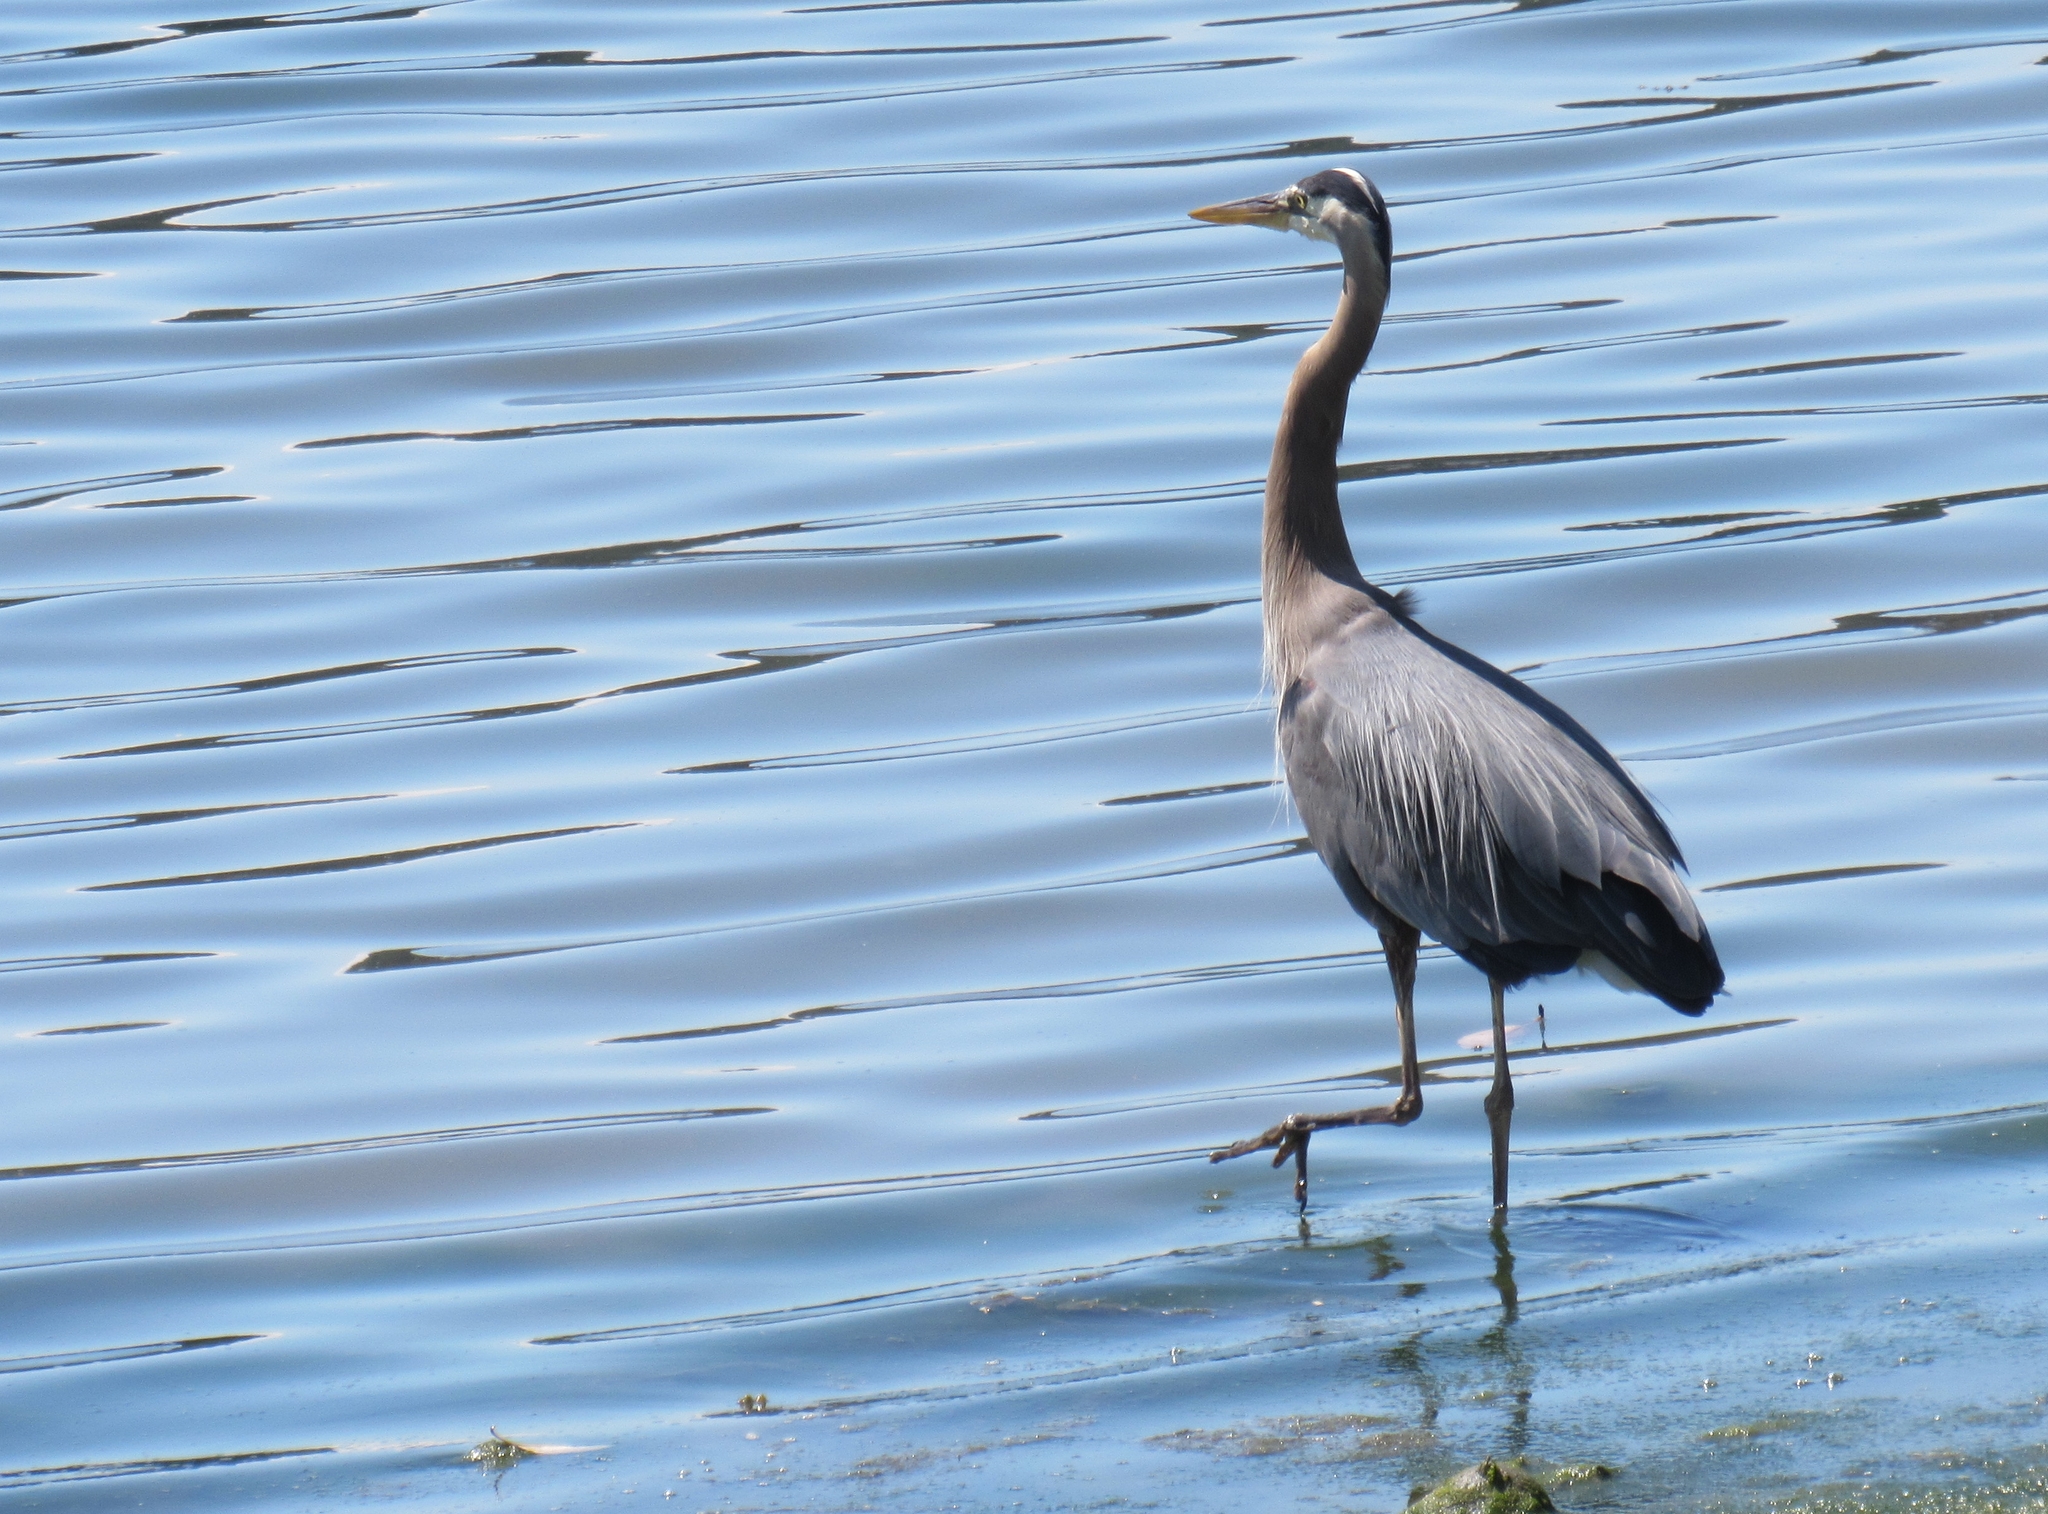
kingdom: Animalia
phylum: Chordata
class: Aves
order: Pelecaniformes
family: Ardeidae
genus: Ardea
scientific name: Ardea herodias
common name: Great blue heron
